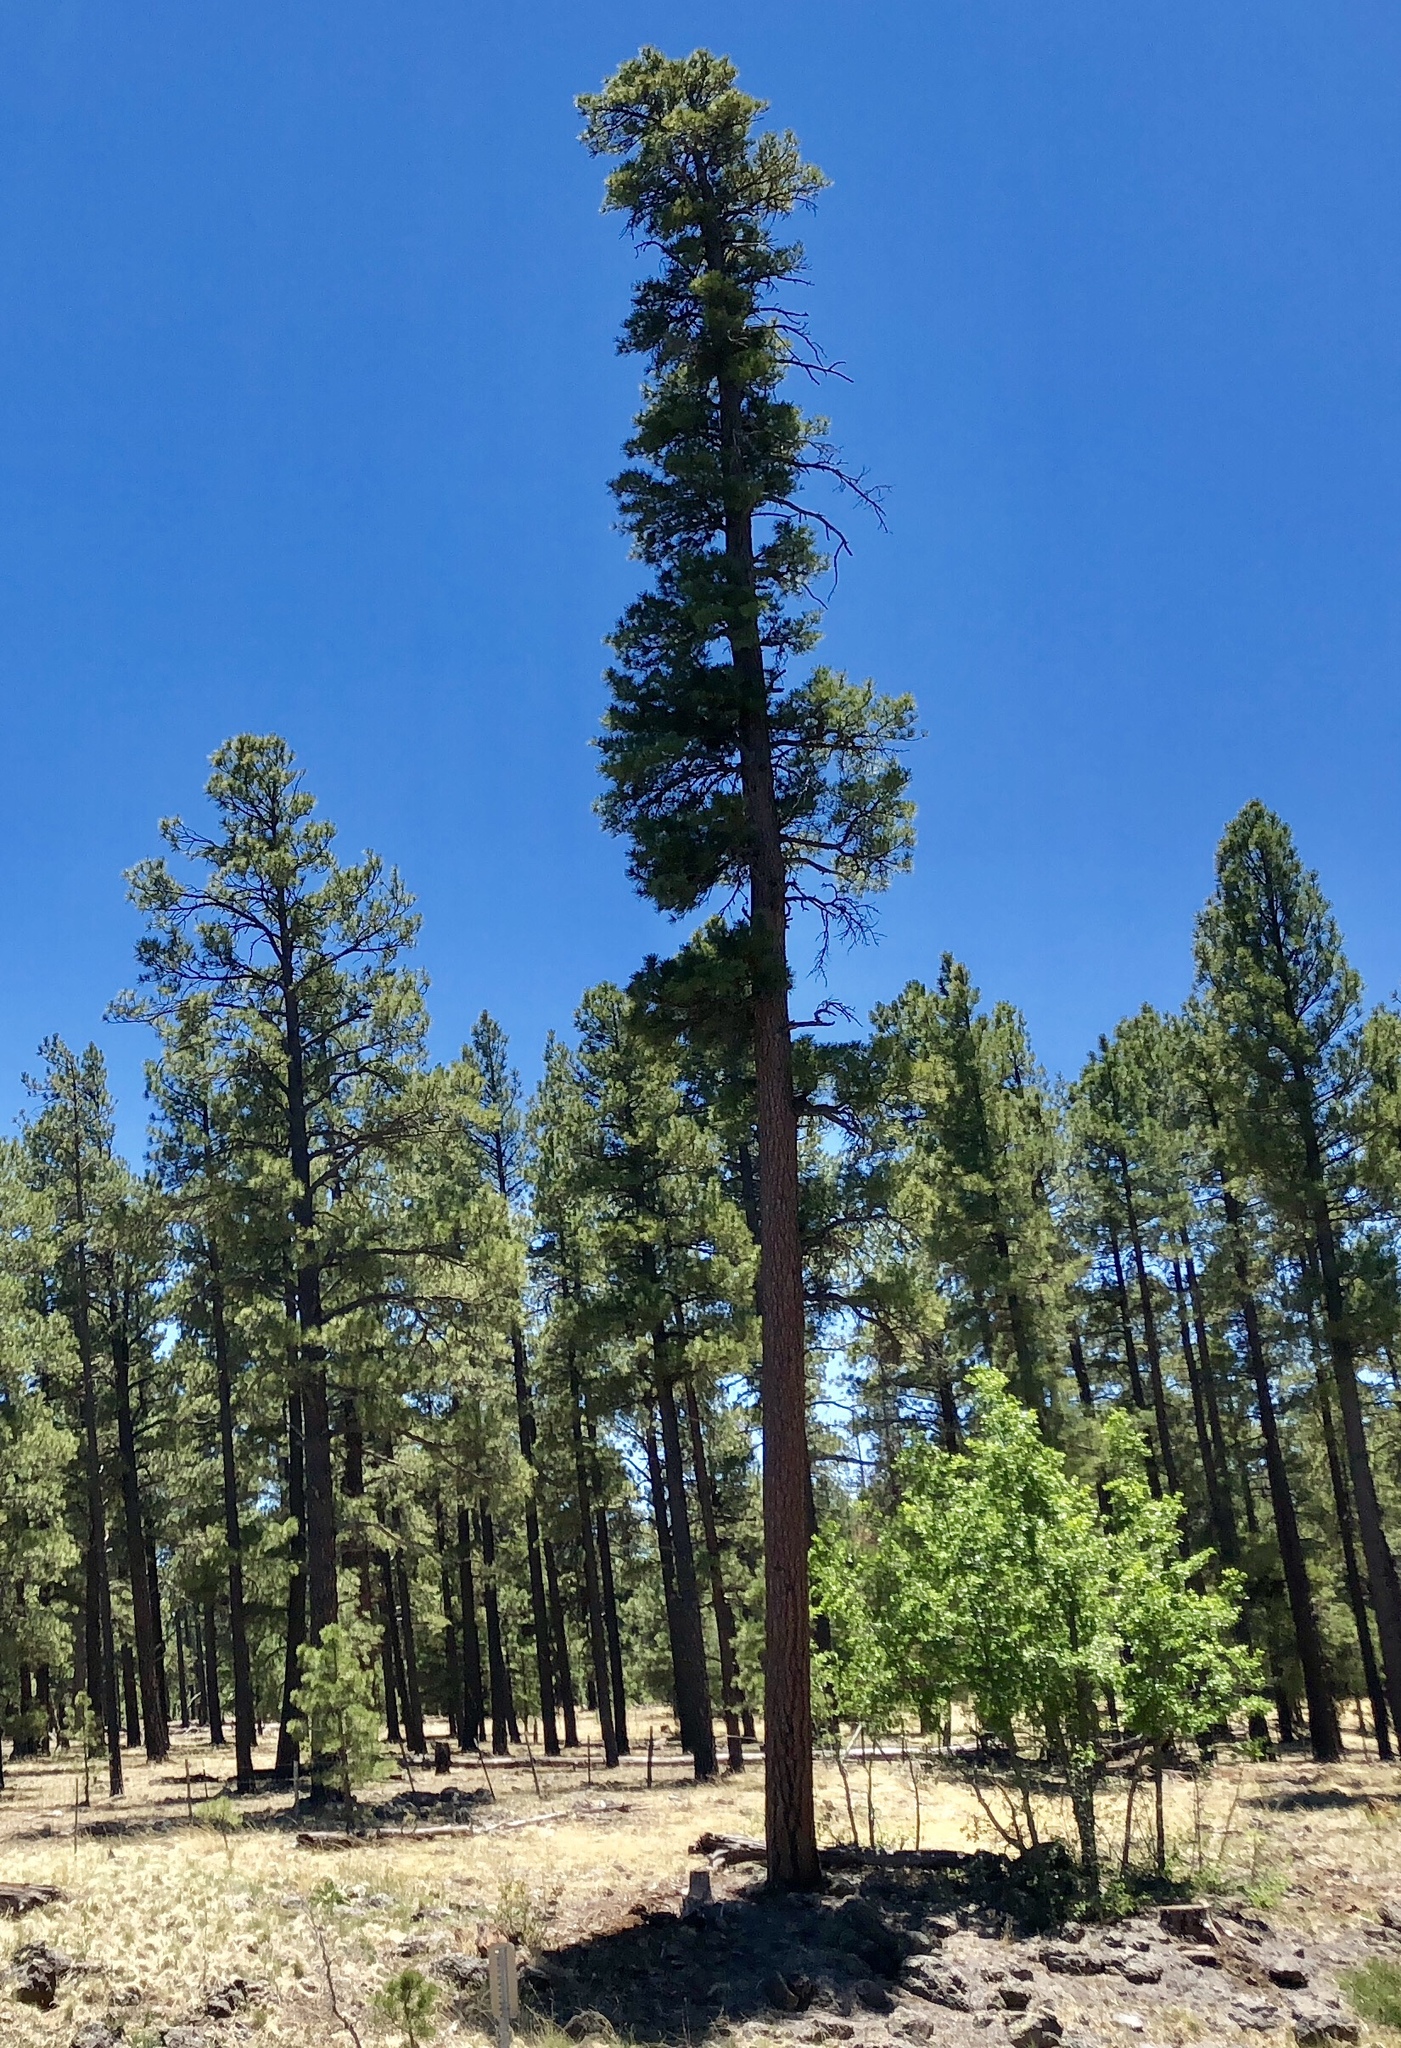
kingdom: Plantae
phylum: Tracheophyta
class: Pinopsida
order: Pinales
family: Pinaceae
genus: Pinus
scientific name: Pinus ponderosa
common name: Western yellow-pine
